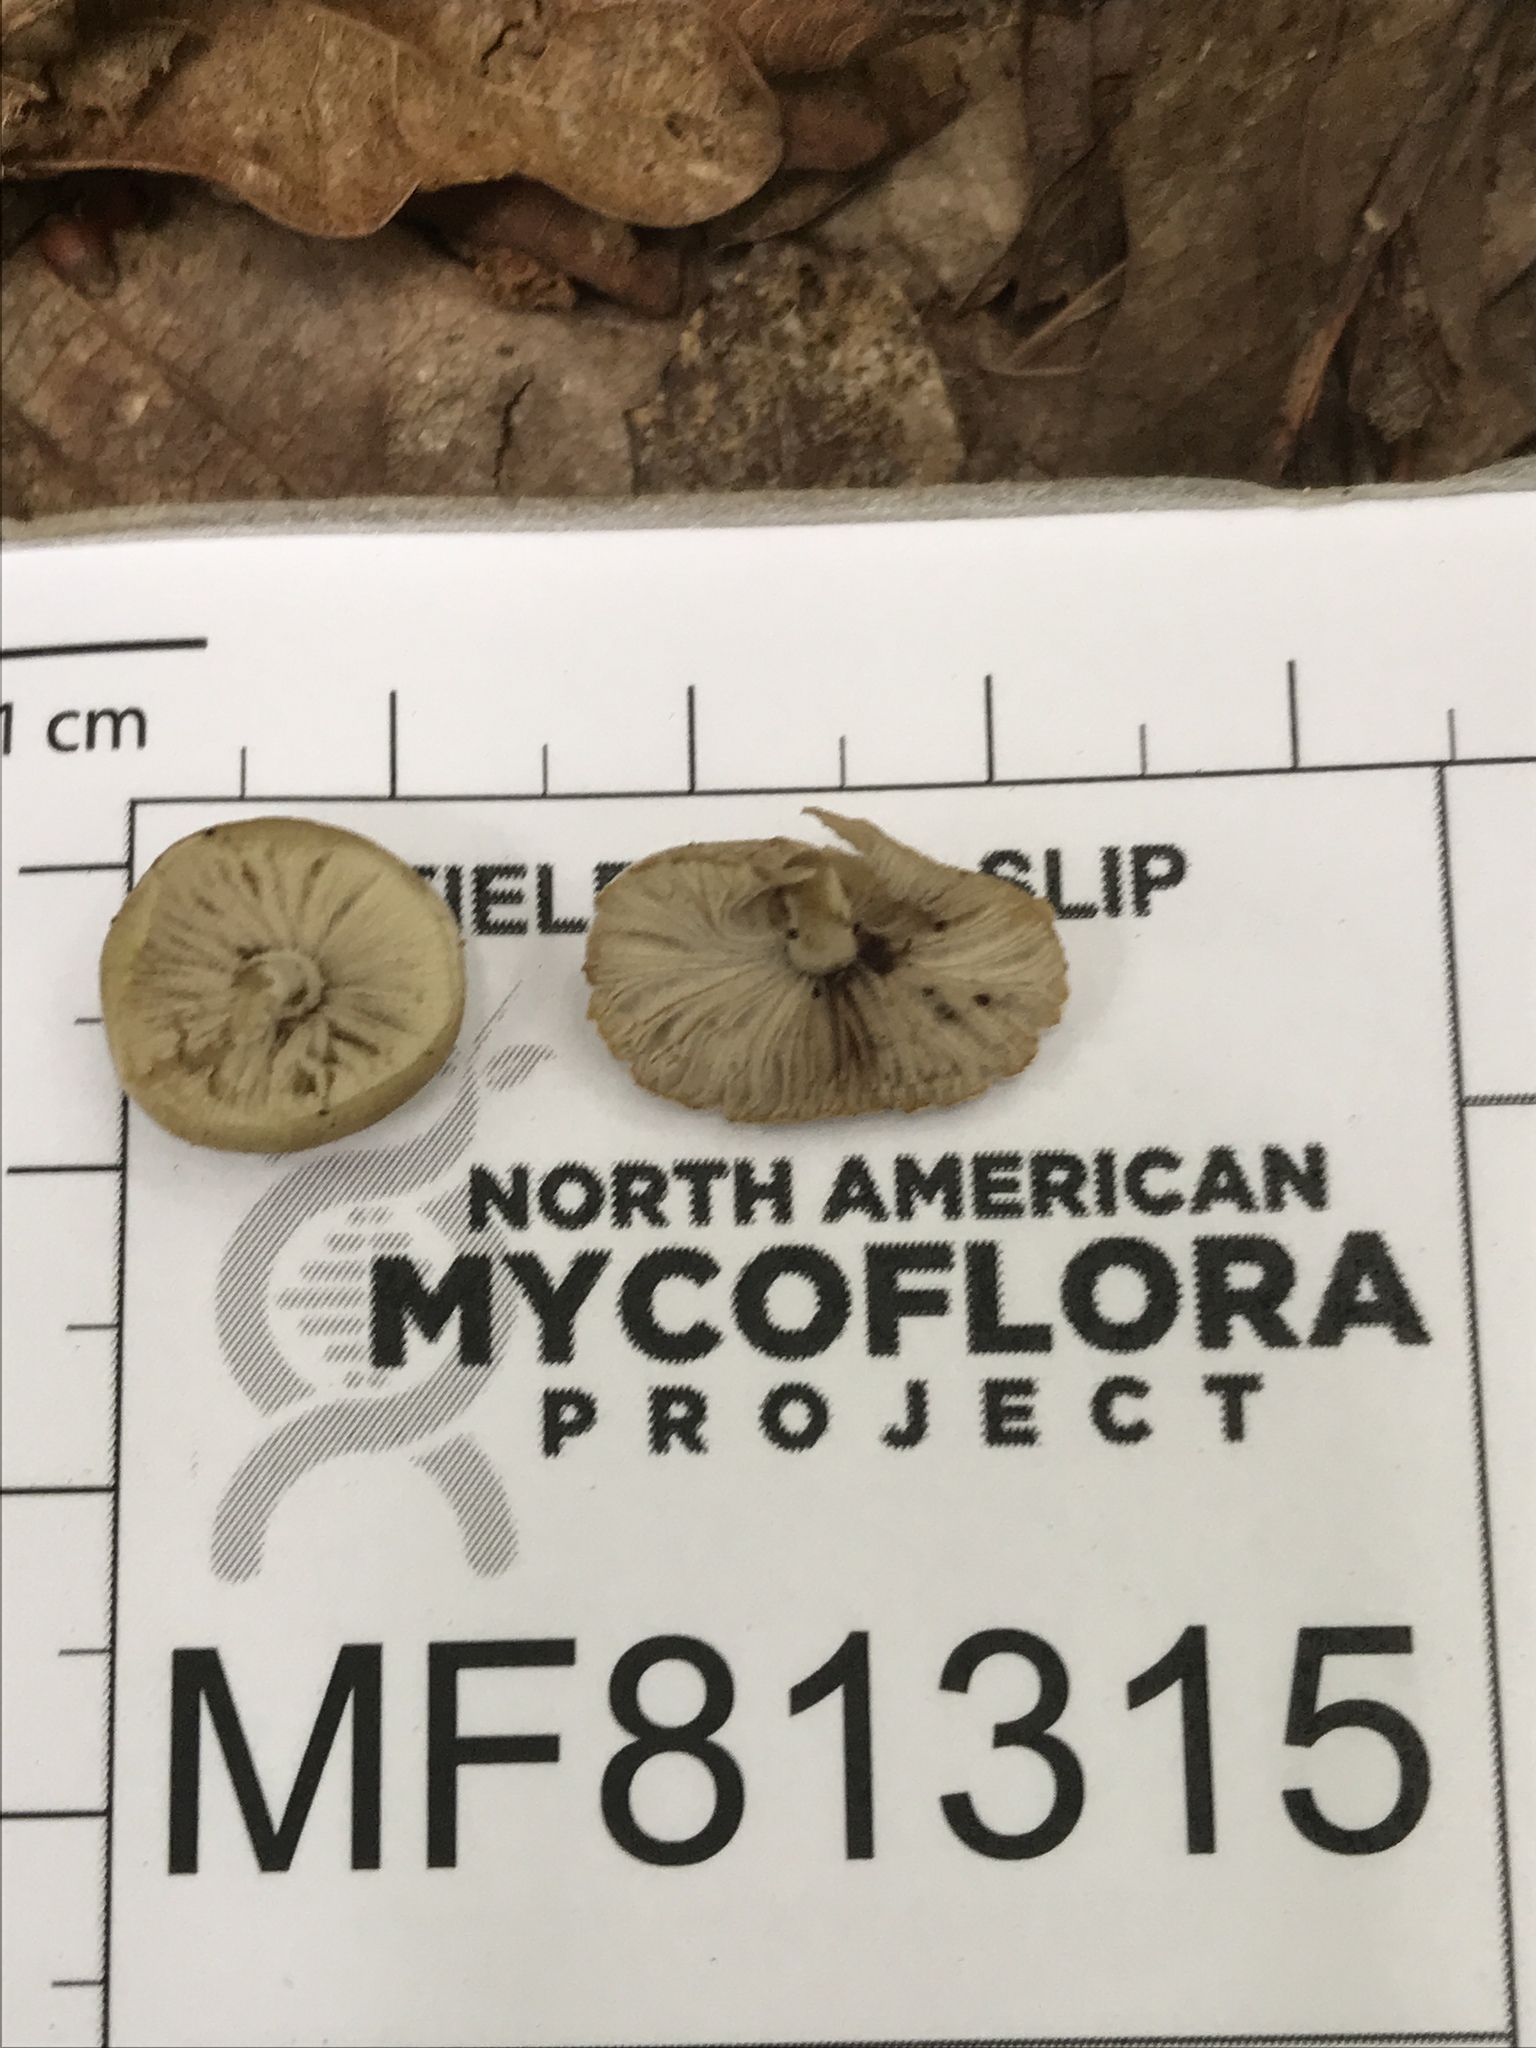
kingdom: Fungi
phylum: Basidiomycota
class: Agaricomycetes
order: Agaricales
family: Crepidotaceae
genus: Simocybe
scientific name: Simocybe serrulata
